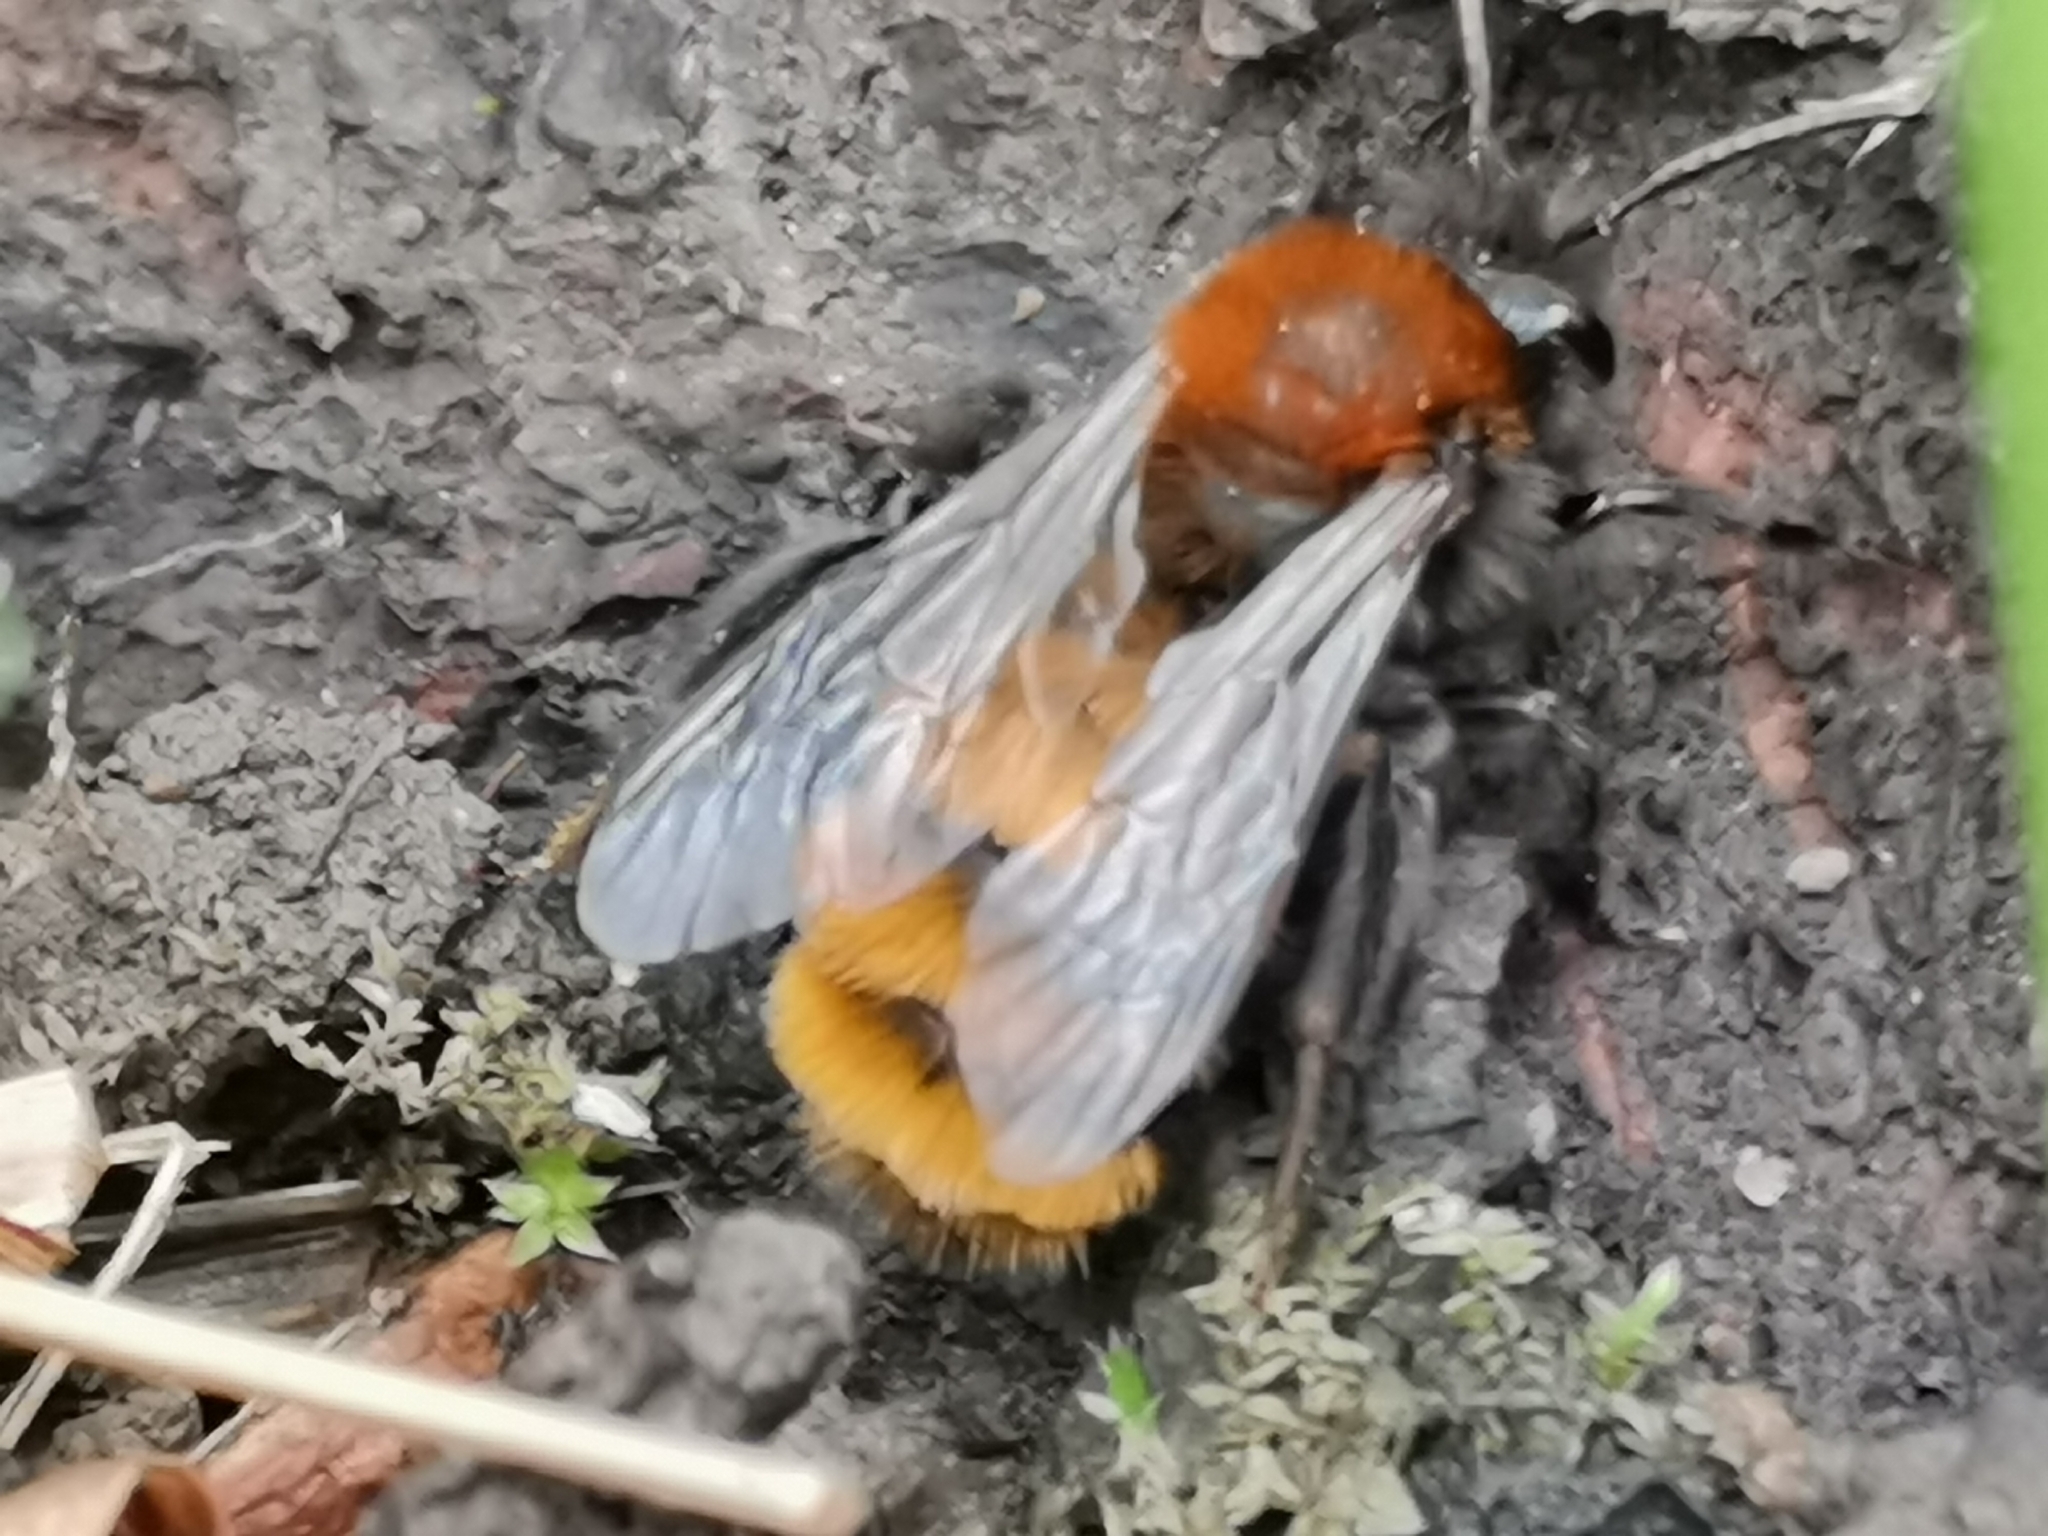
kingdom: Animalia
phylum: Arthropoda
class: Insecta
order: Hymenoptera
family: Andrenidae
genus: Andrena
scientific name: Andrena fulva
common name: Tawny mining bee
